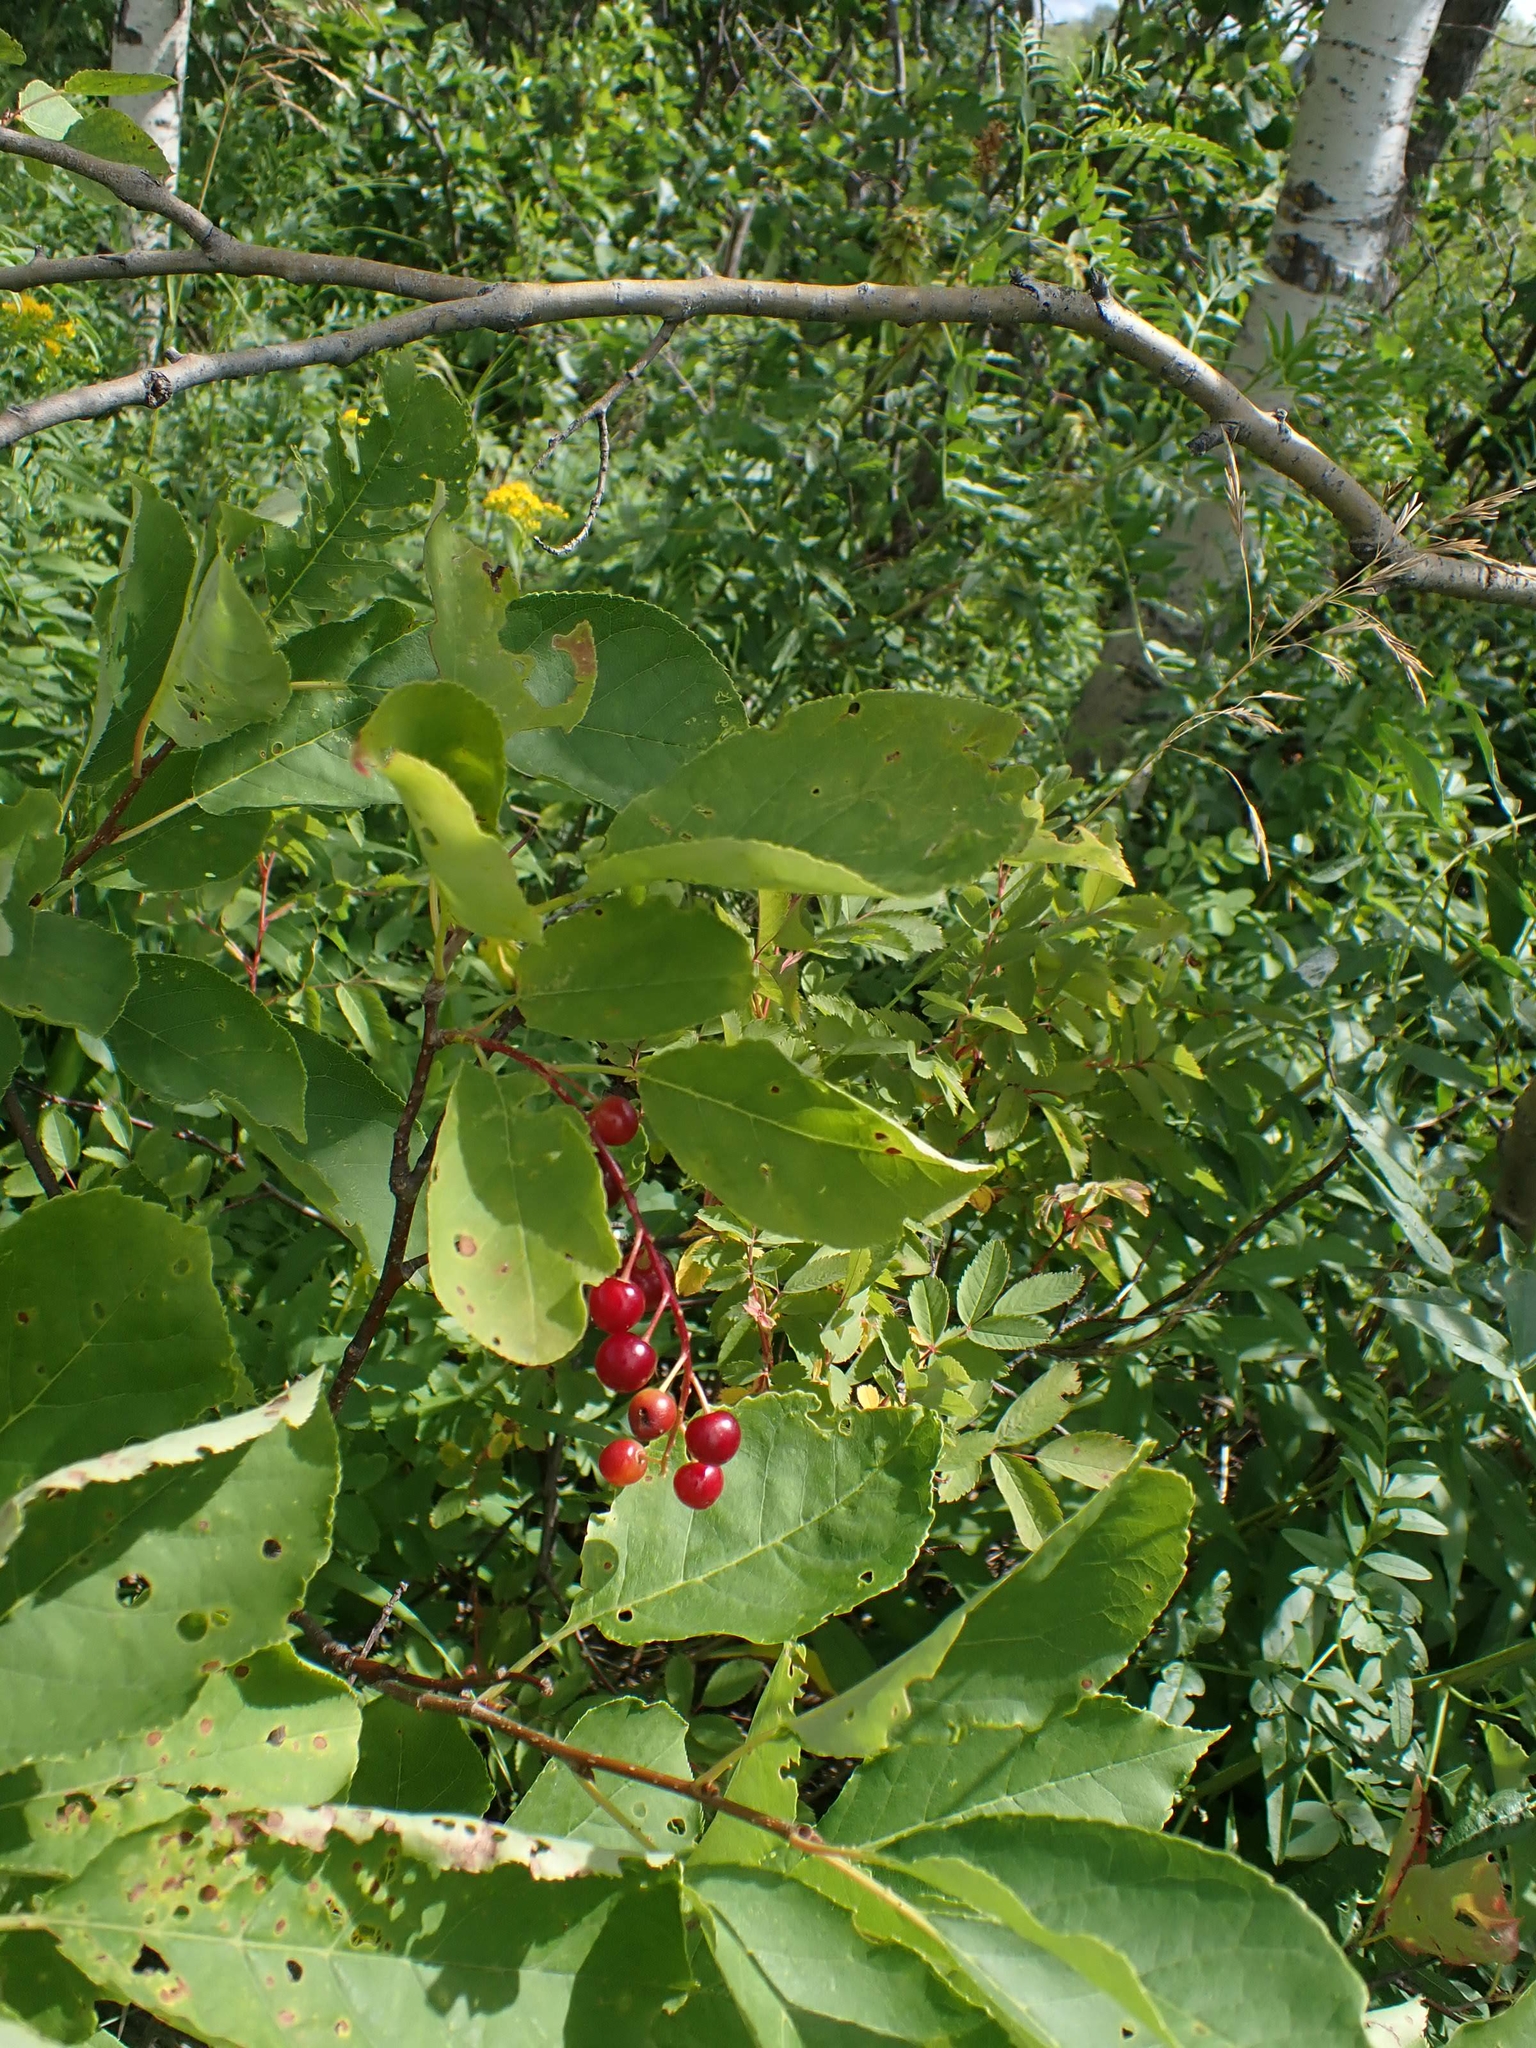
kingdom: Plantae
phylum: Tracheophyta
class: Magnoliopsida
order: Rosales
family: Rosaceae
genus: Prunus
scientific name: Prunus virginiana
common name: Chokecherry
